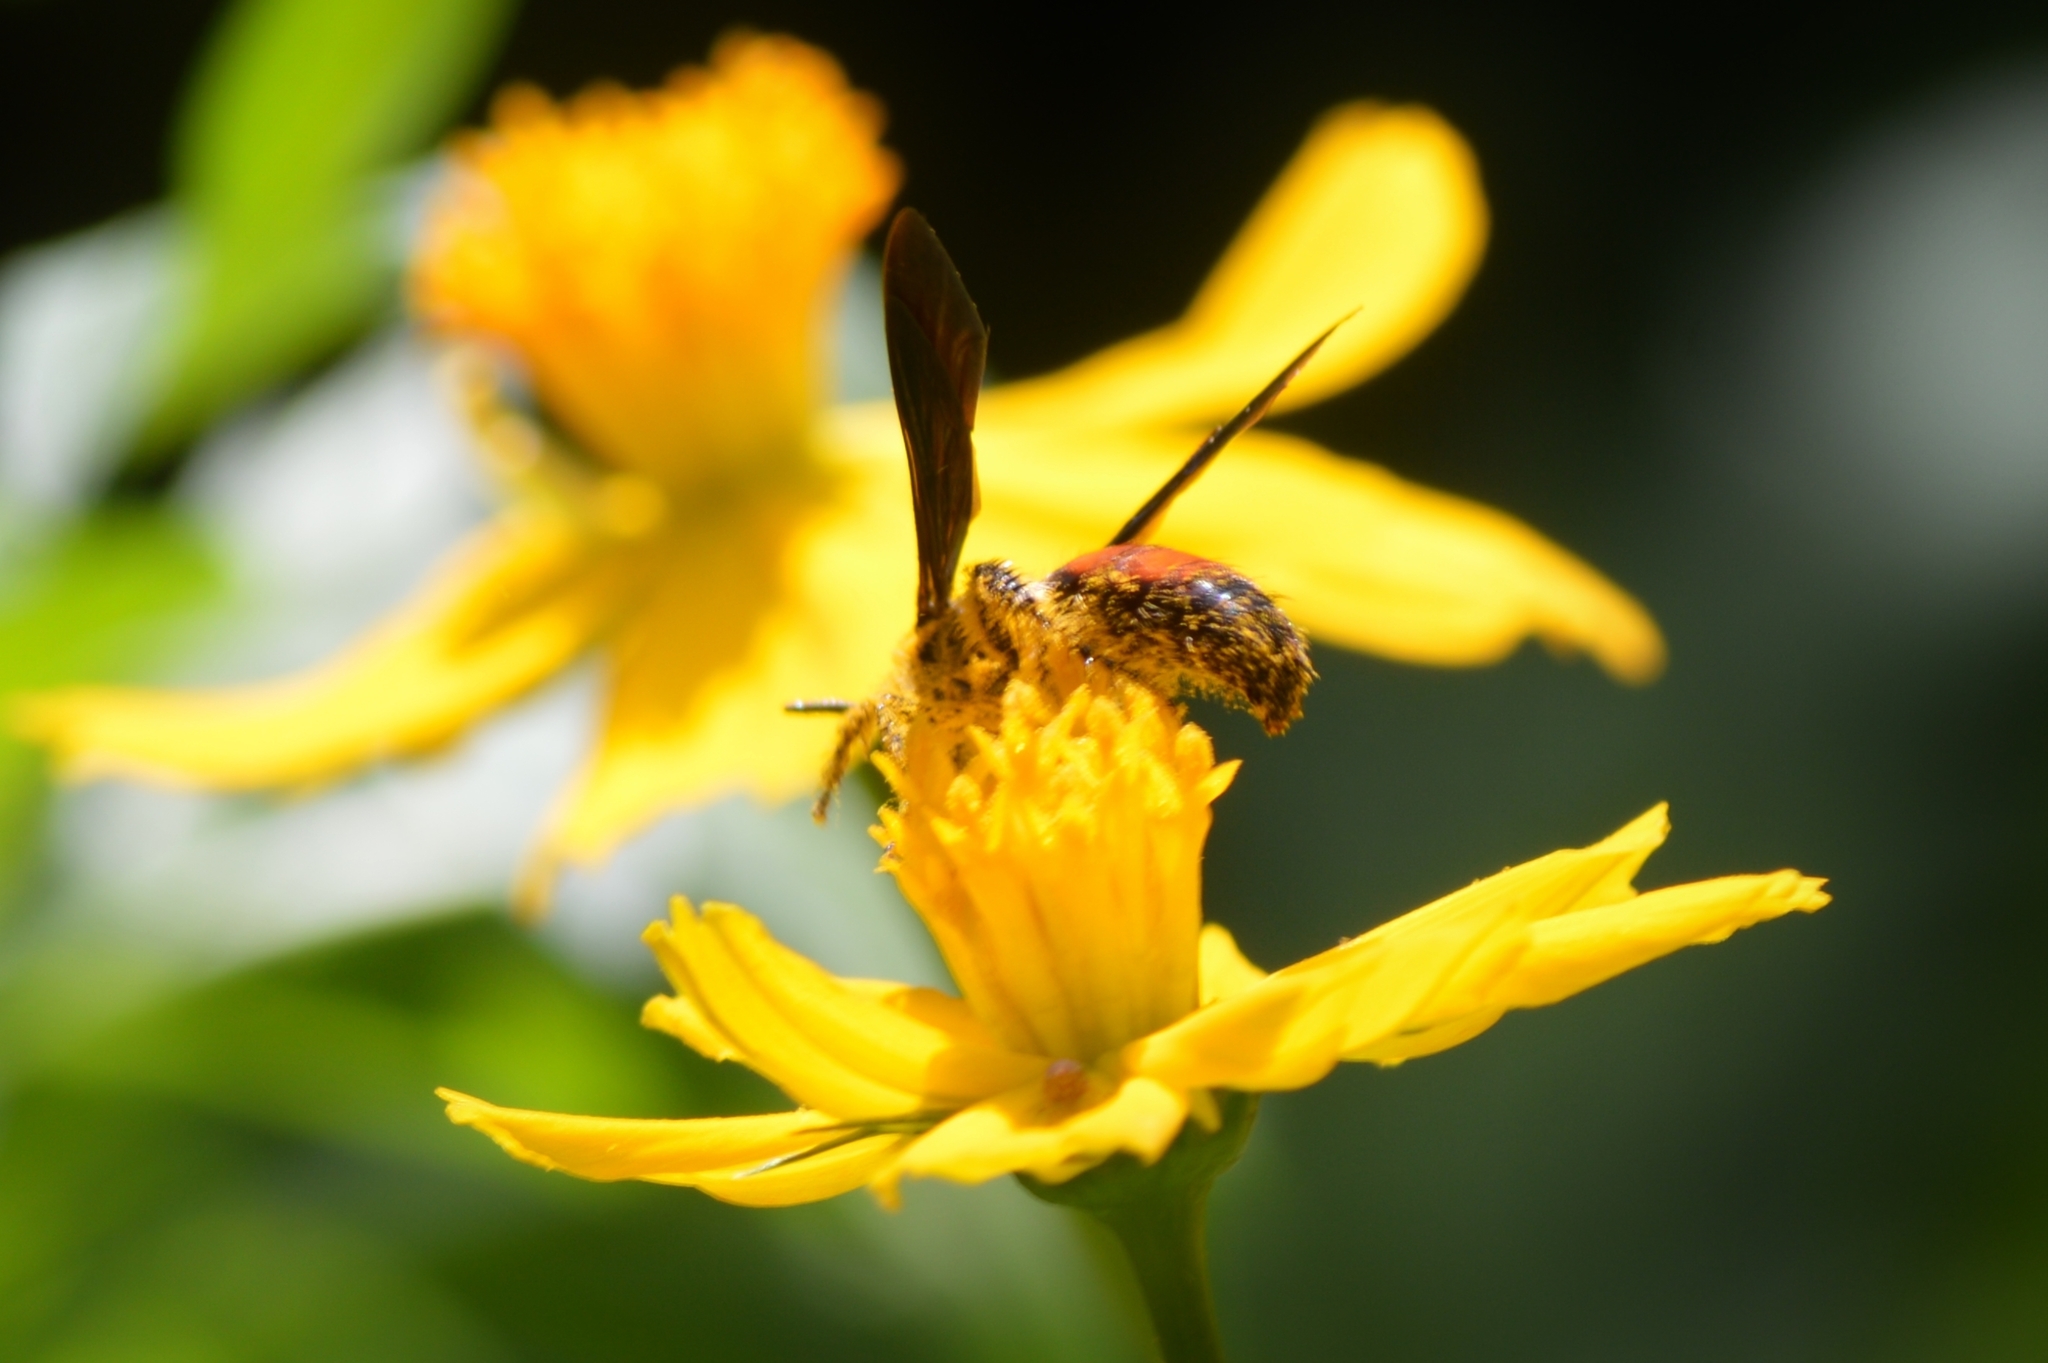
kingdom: Animalia
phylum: Arthropoda
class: Insecta
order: Hymenoptera
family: Scoliidae
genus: Dielis
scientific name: Dielis dorsata
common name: Scoliid wasp
